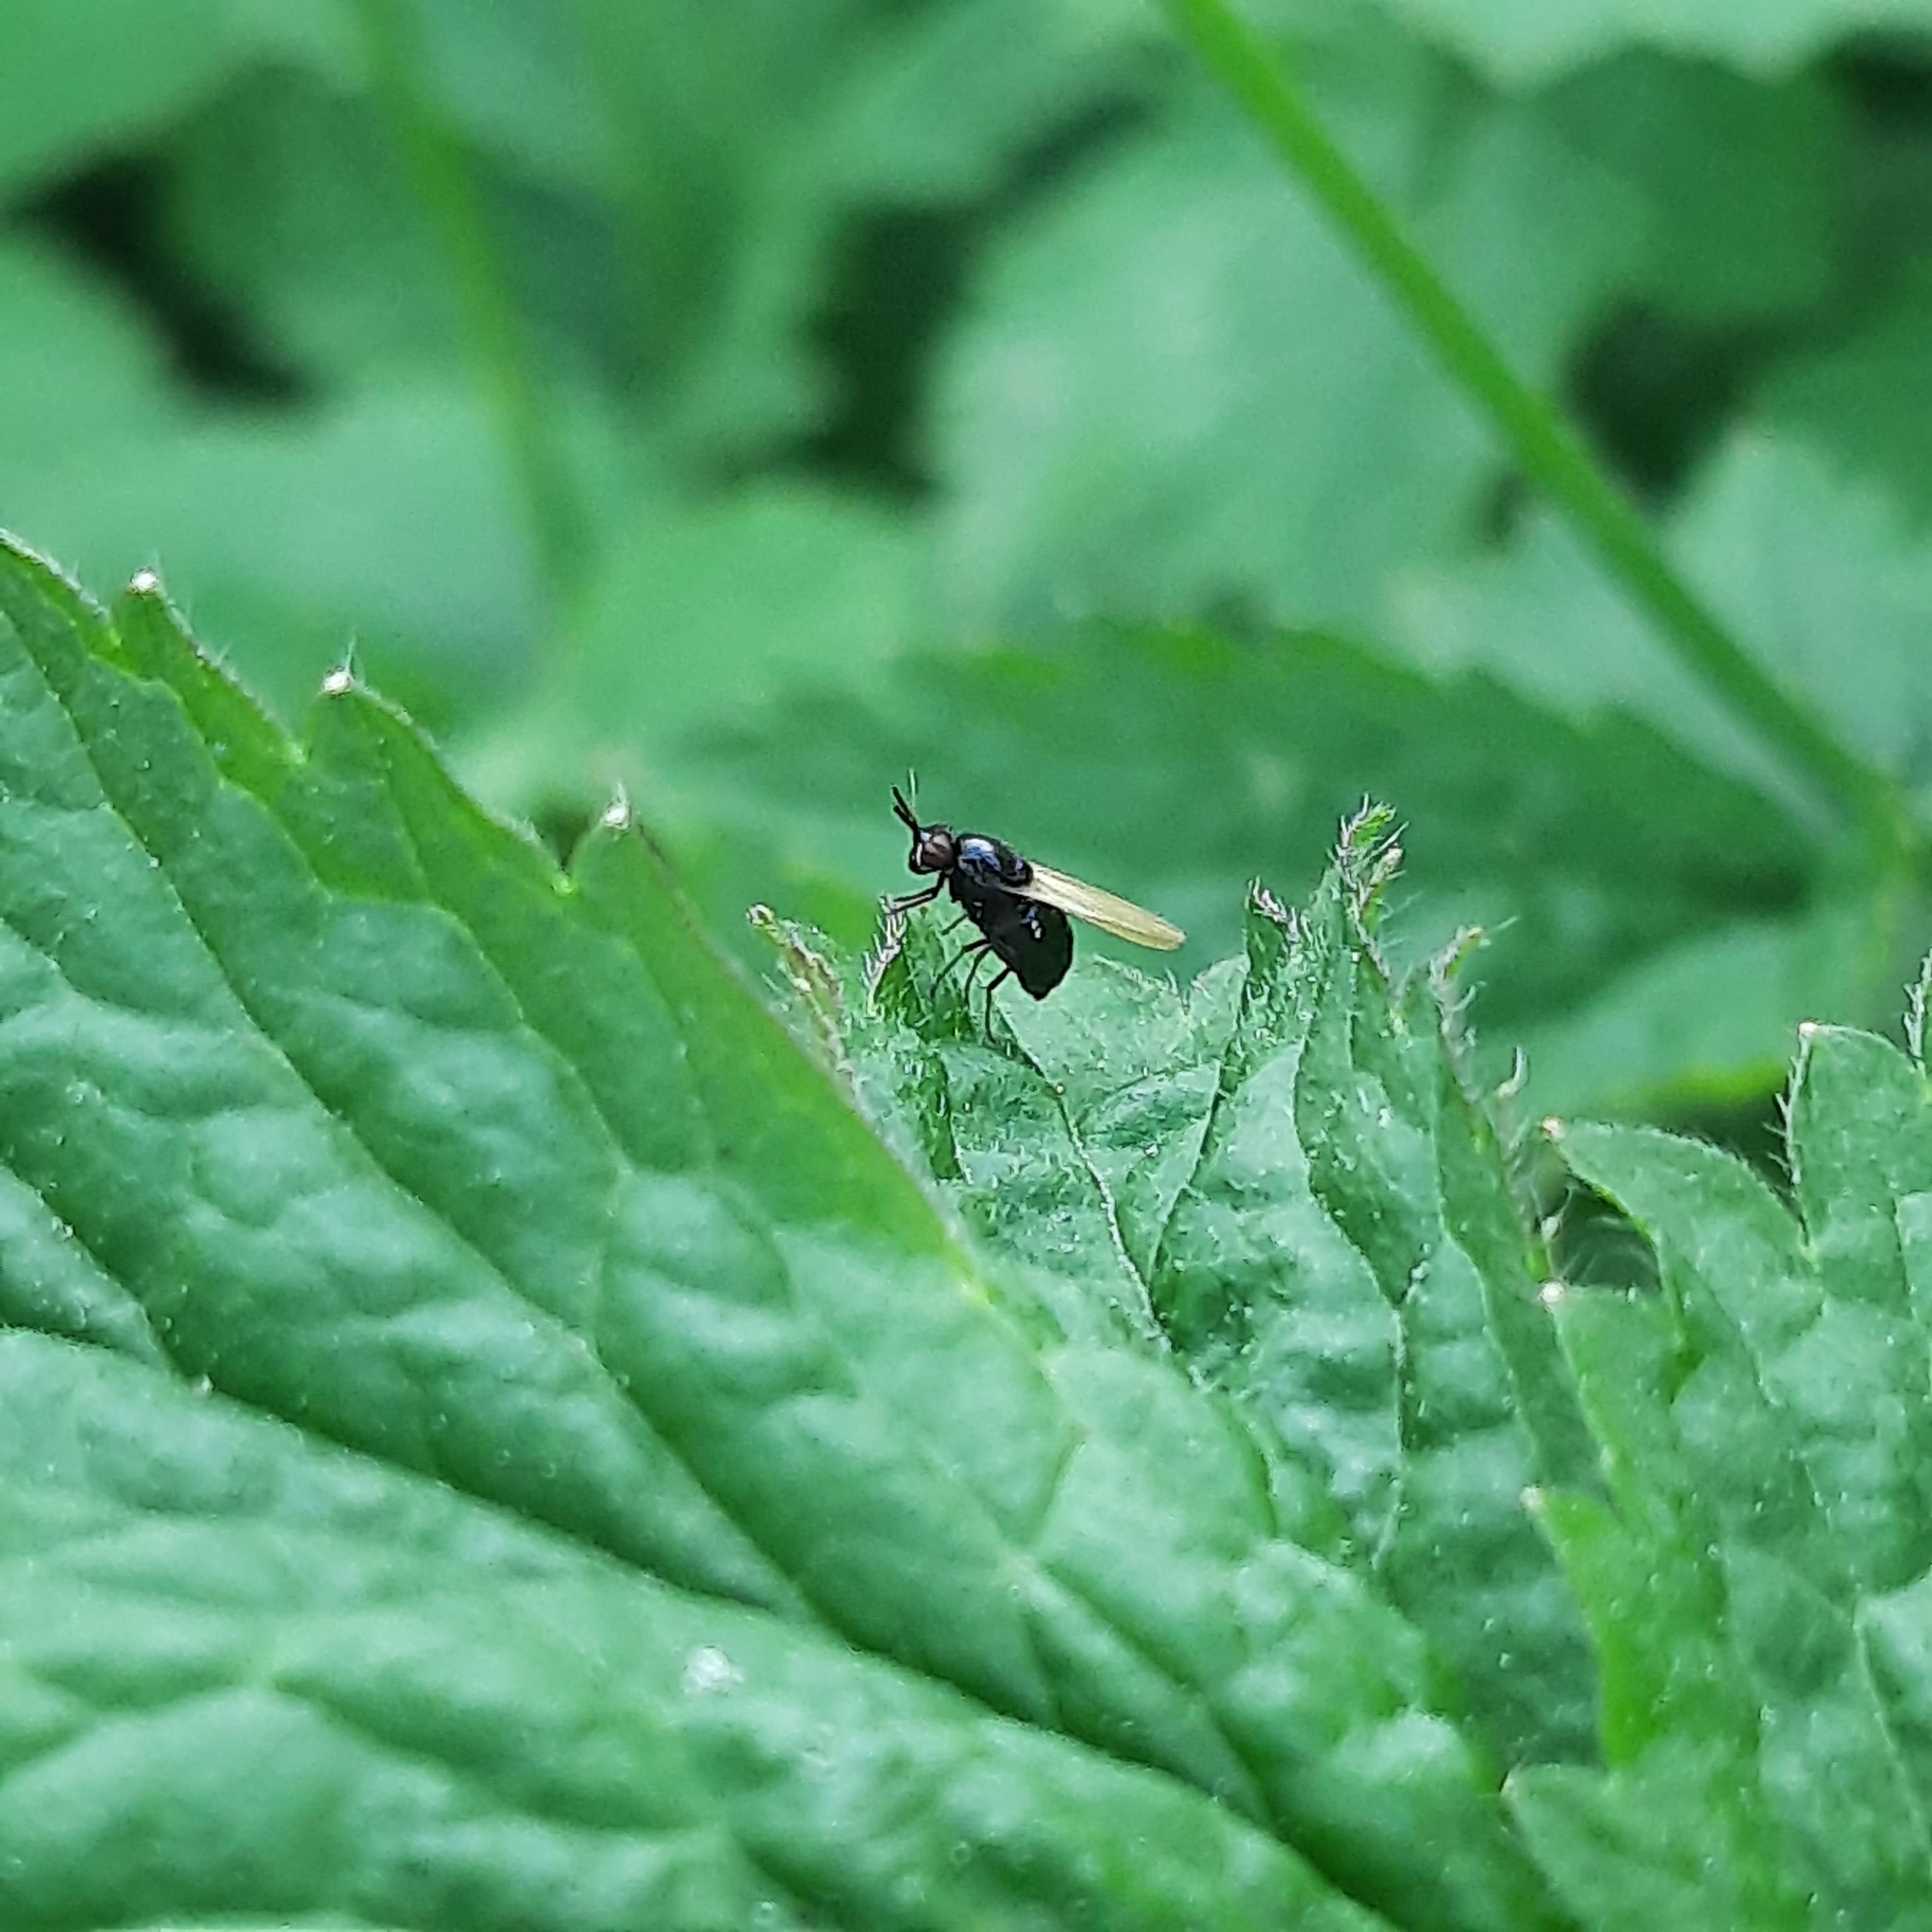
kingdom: Animalia
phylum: Arthropoda
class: Insecta
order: Diptera
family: Lauxaniidae
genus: Lauxania
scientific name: Lauxania
